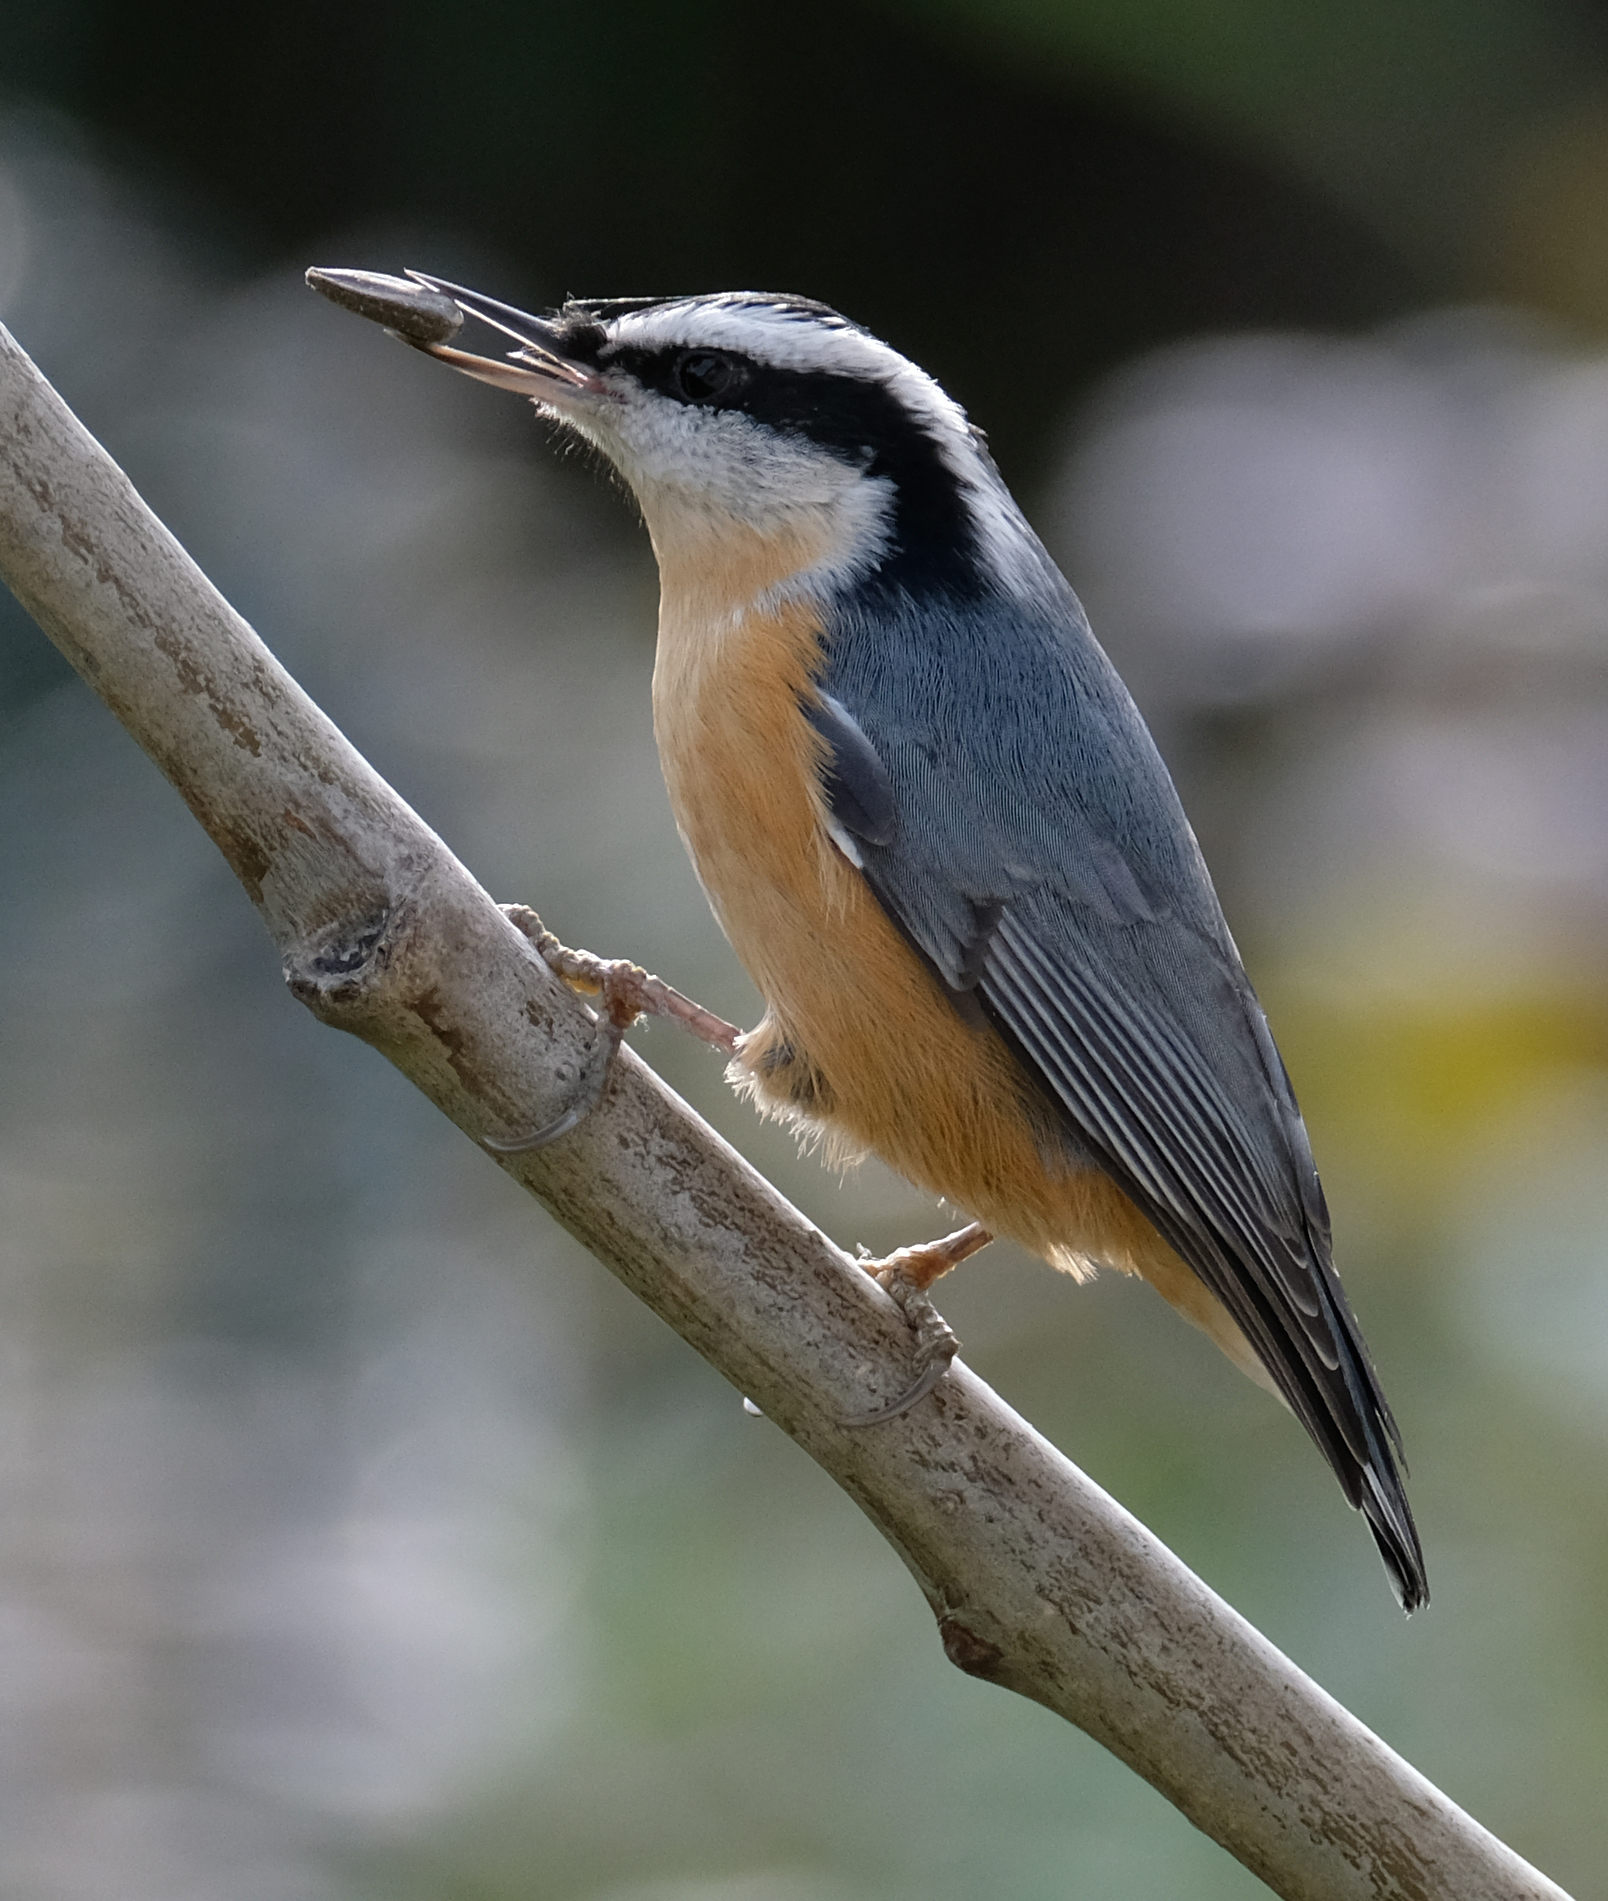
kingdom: Animalia
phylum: Chordata
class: Aves
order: Passeriformes
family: Sittidae
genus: Sitta
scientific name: Sitta canadensis
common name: Red-breasted nuthatch
